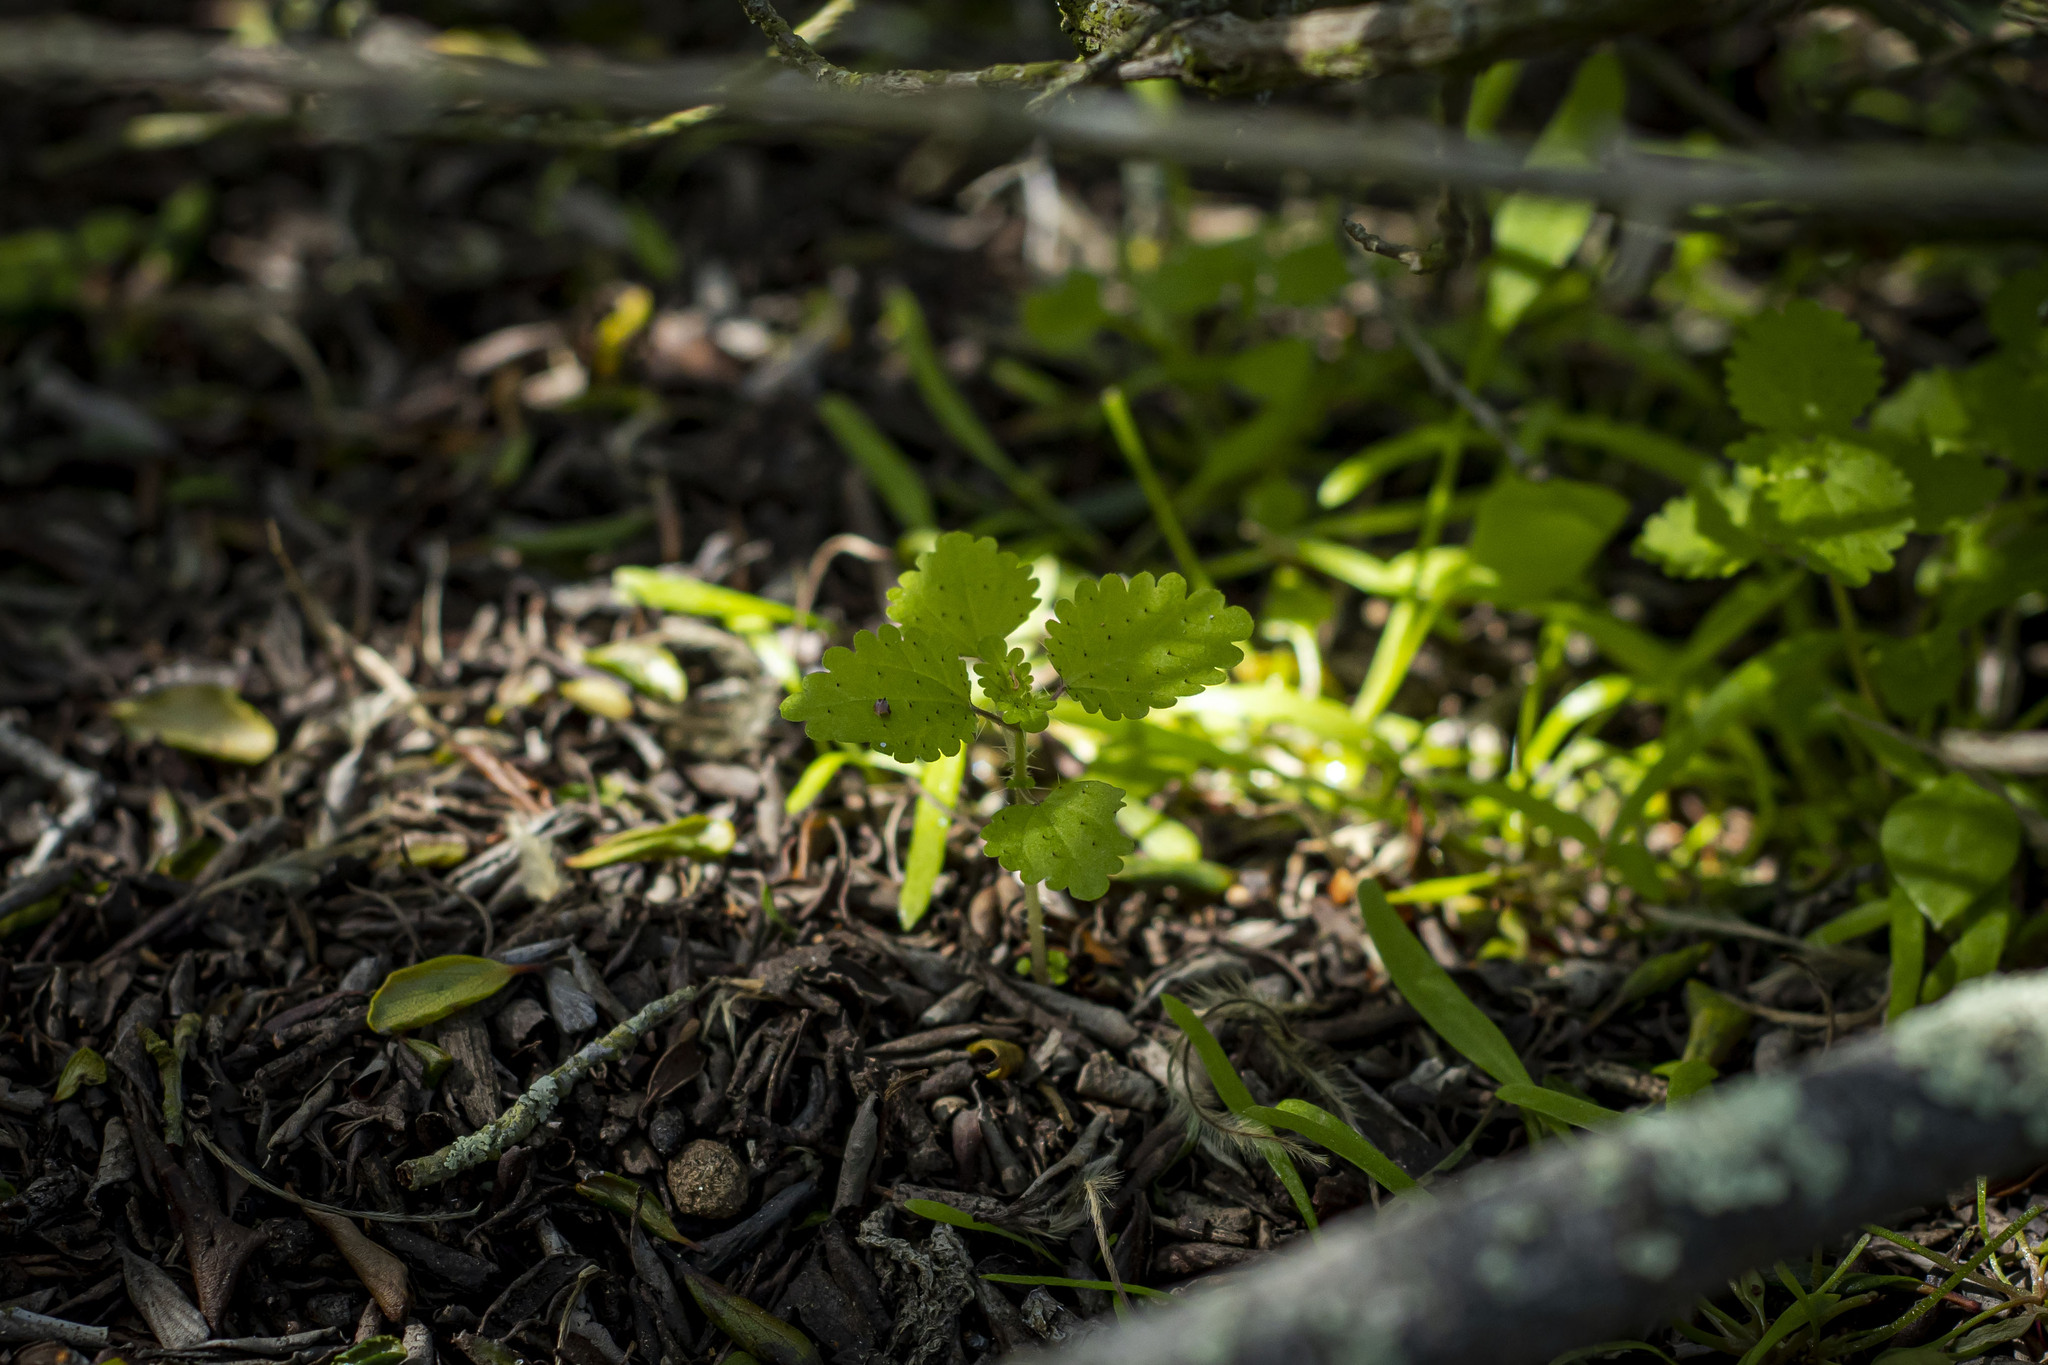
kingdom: Plantae
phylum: Tracheophyta
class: Magnoliopsida
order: Rosales
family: Urticaceae
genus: Hesperocnide
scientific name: Hesperocnide tenella
